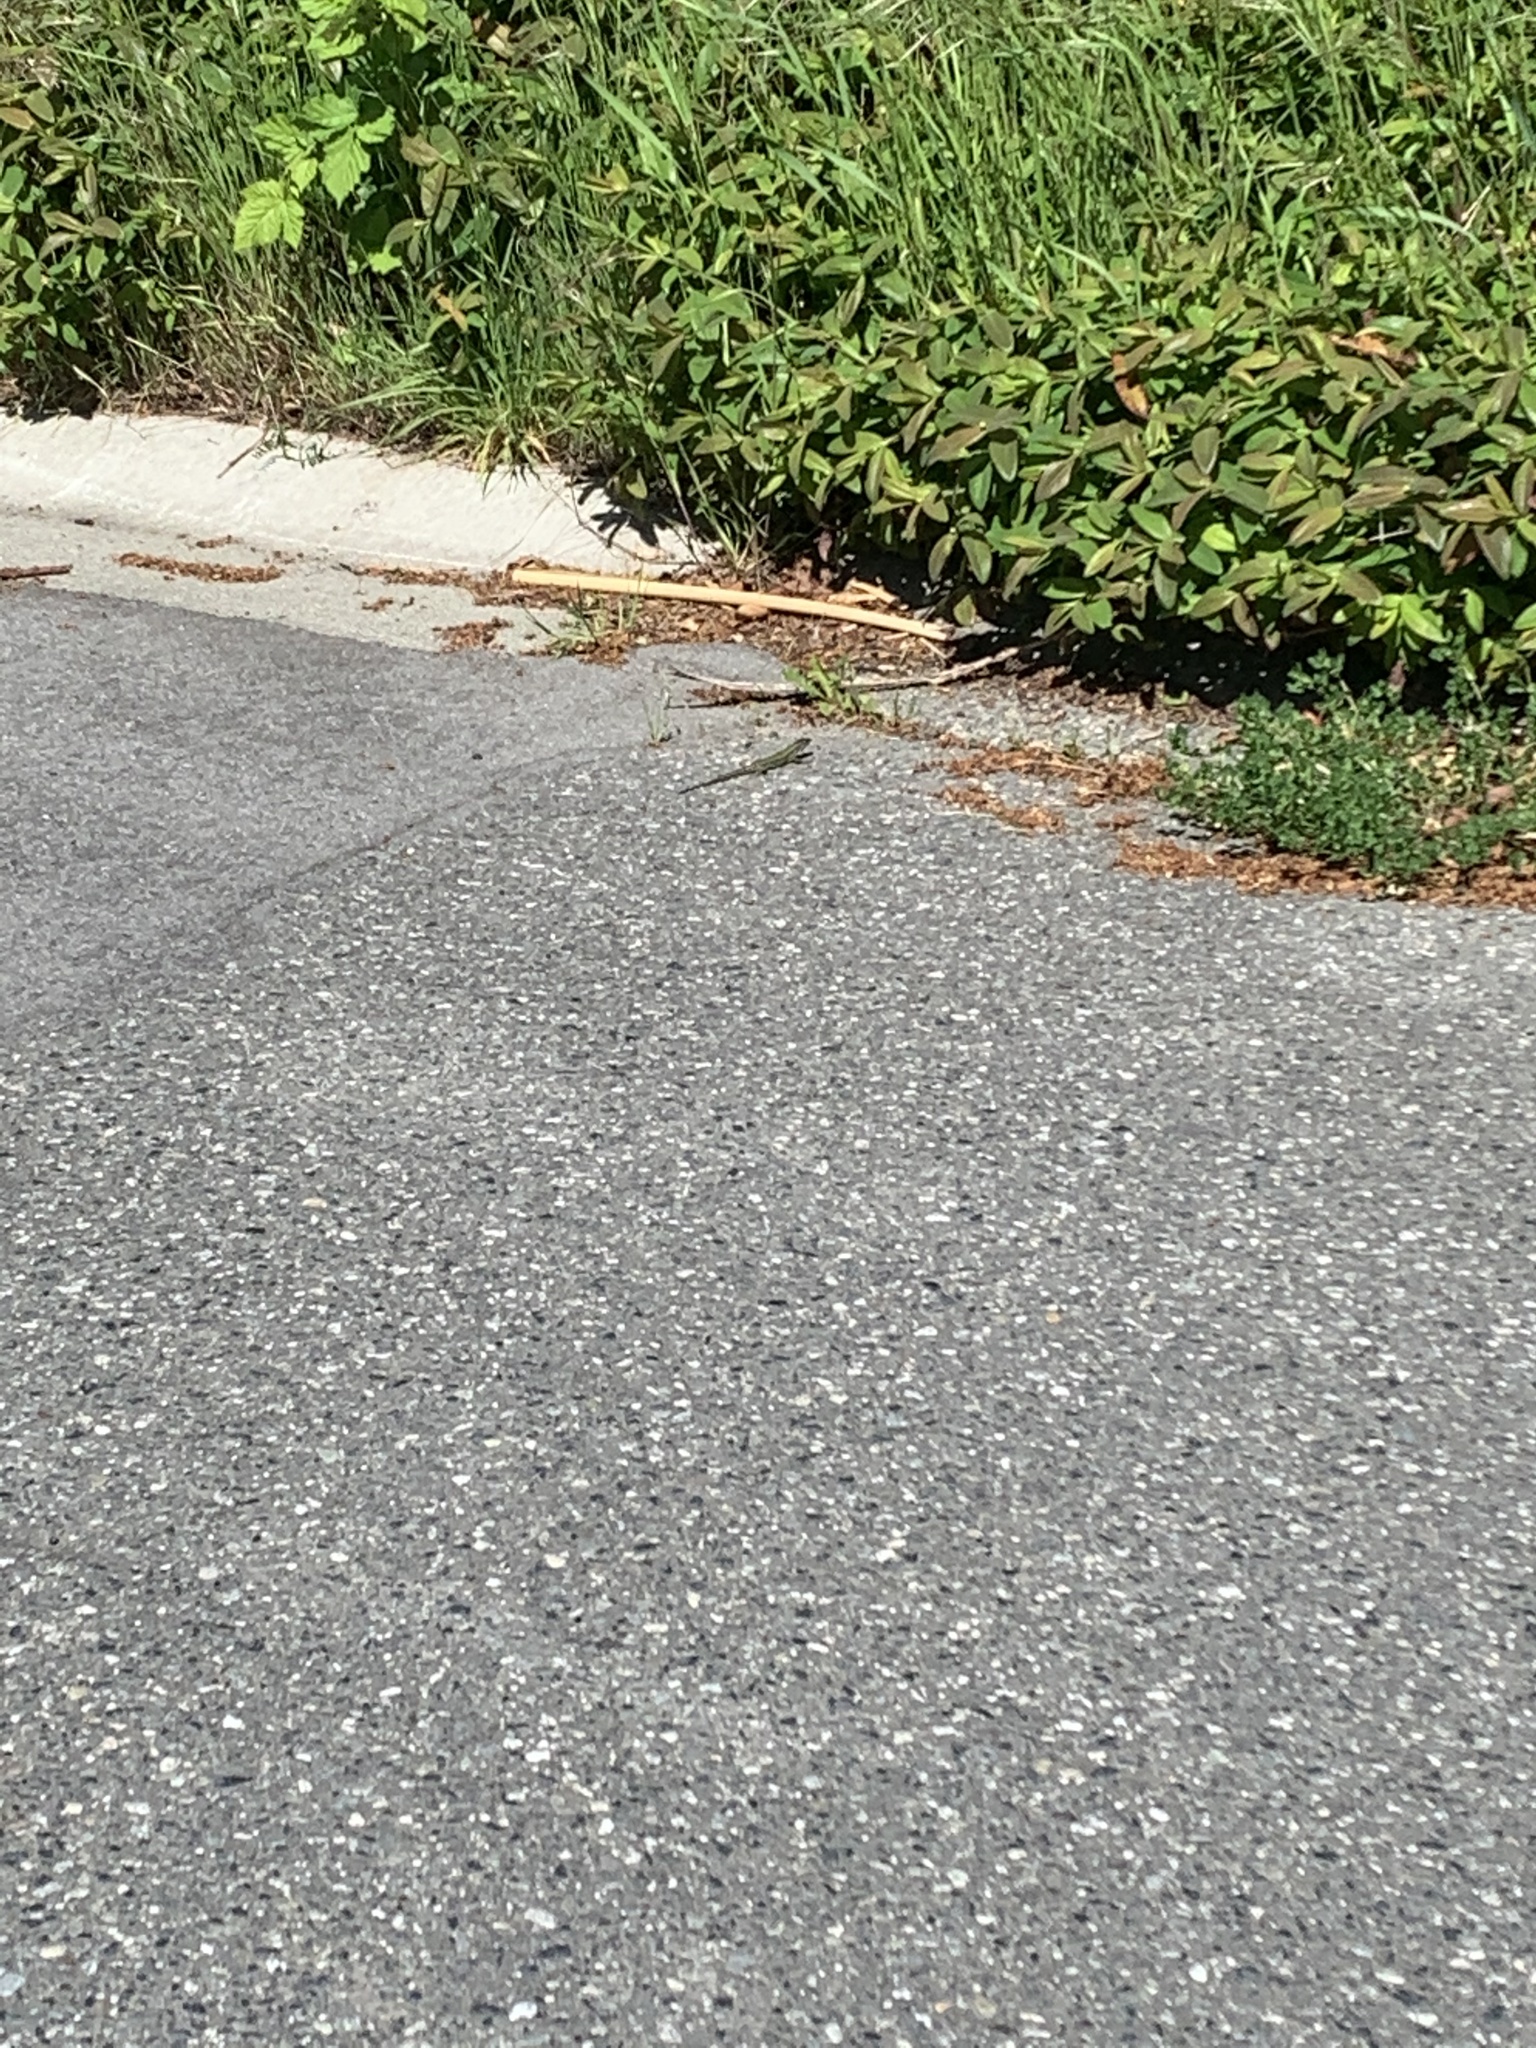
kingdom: Animalia
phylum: Chordata
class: Squamata
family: Lacertidae
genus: Podarcis
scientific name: Podarcis muralis
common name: Common wall lizard
